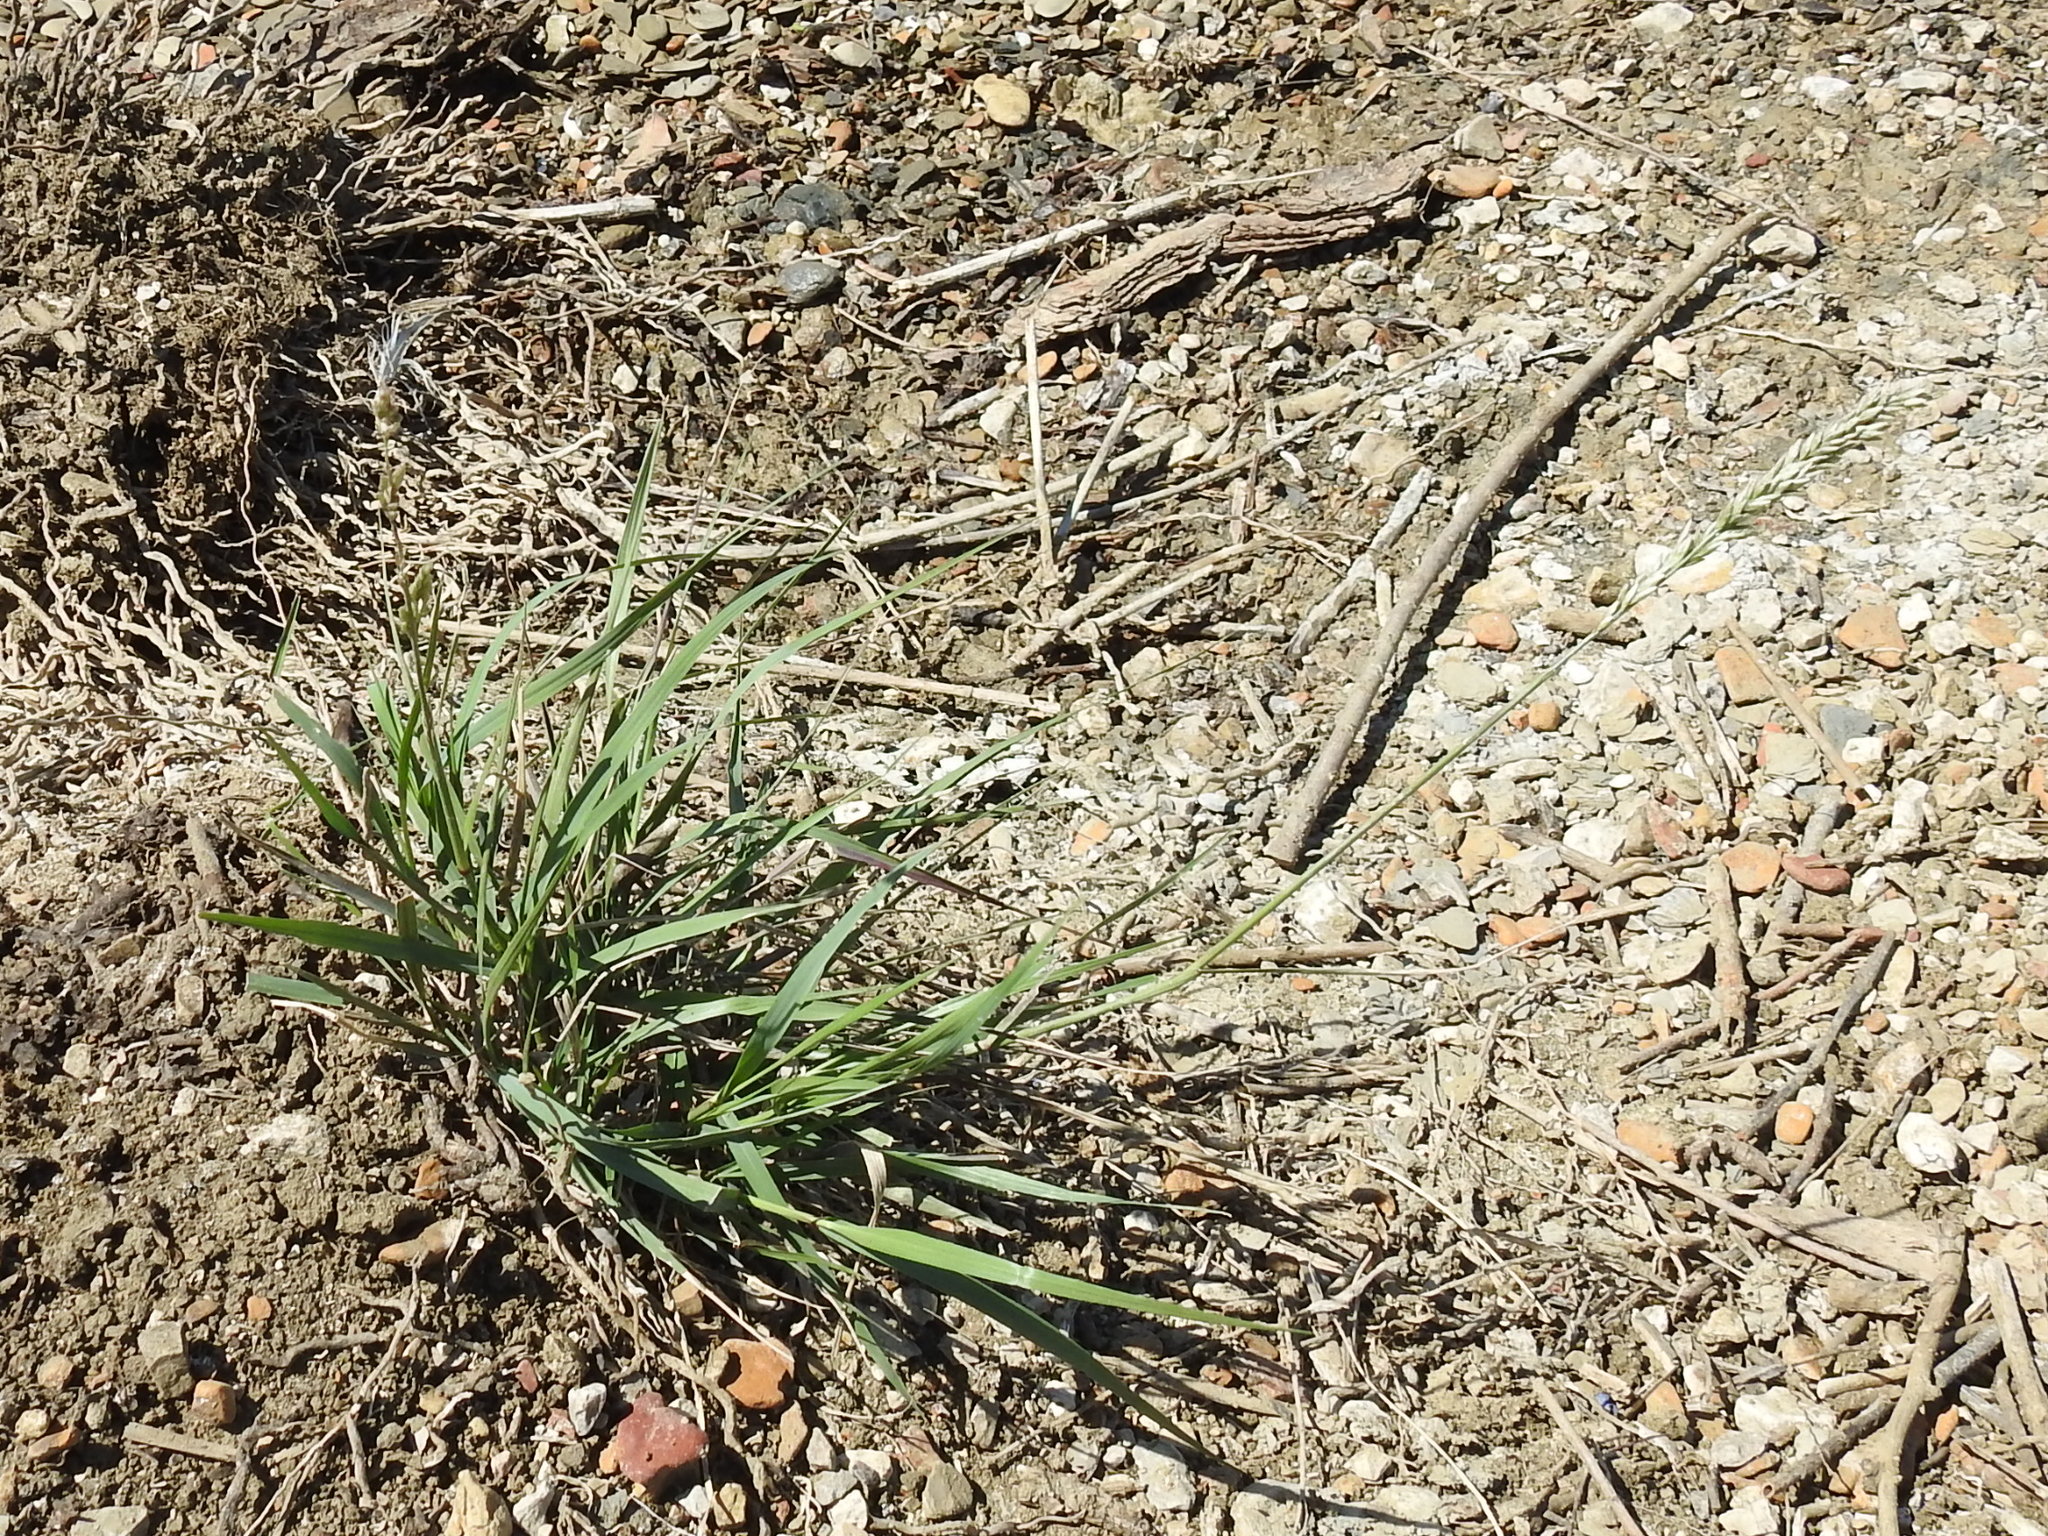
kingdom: Plantae
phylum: Tracheophyta
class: Liliopsida
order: Poales
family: Poaceae
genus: Tridens
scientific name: Tridens albescens
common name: White tridens
